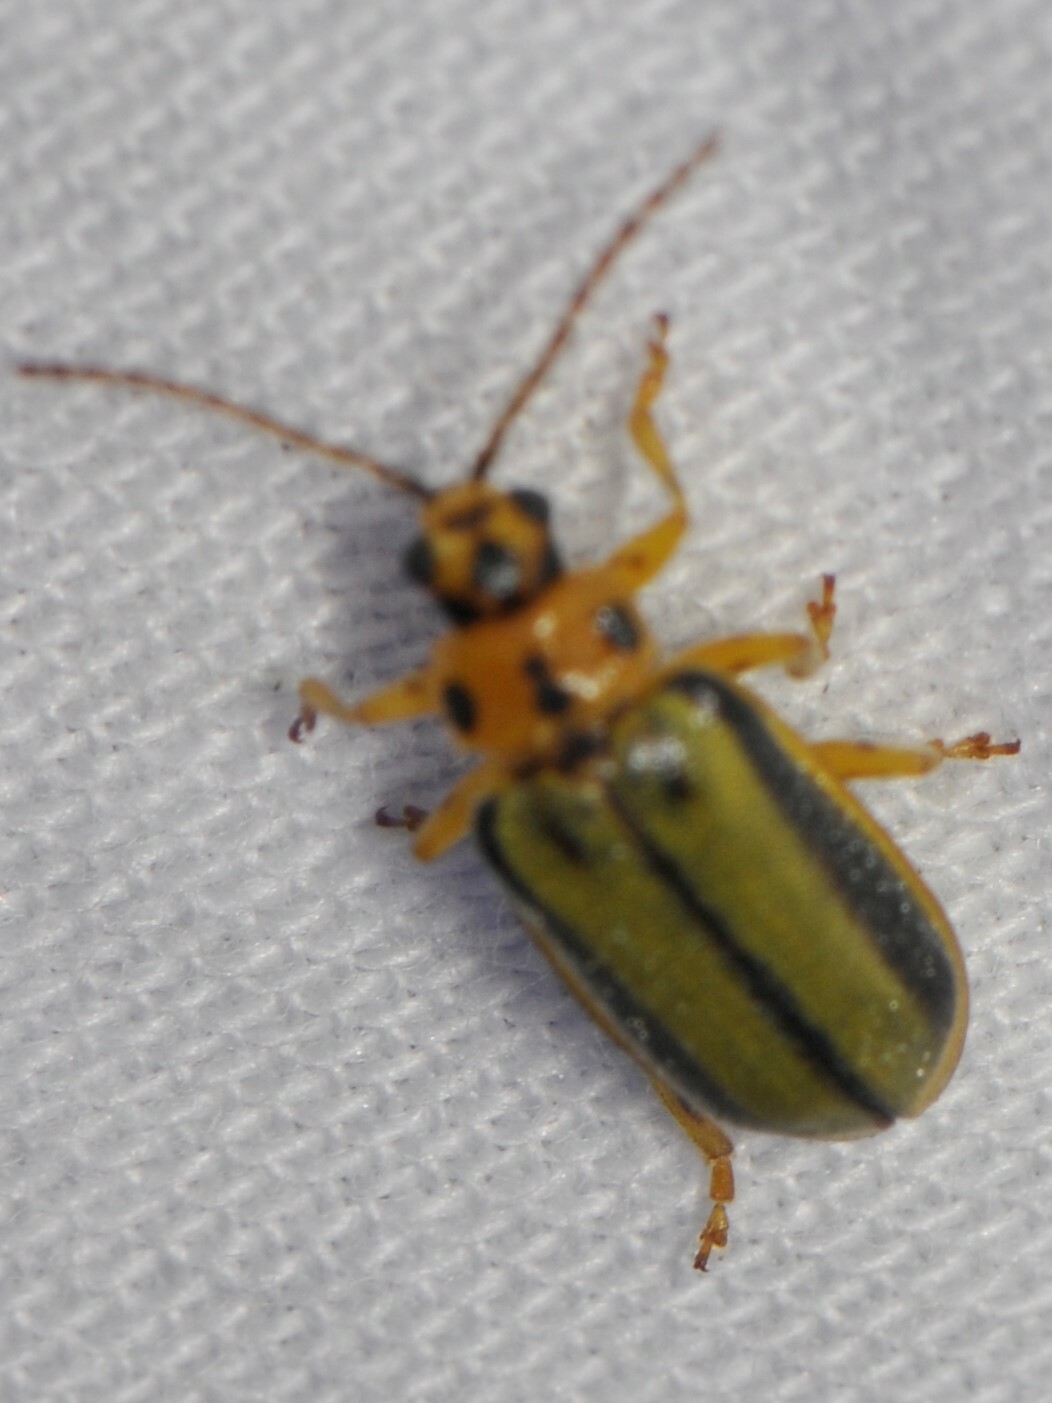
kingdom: Animalia
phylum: Arthropoda
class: Insecta
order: Coleoptera
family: Chrysomelidae
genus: Xanthogaleruca
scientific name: Xanthogaleruca luteola
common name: Elm leaf beetle
